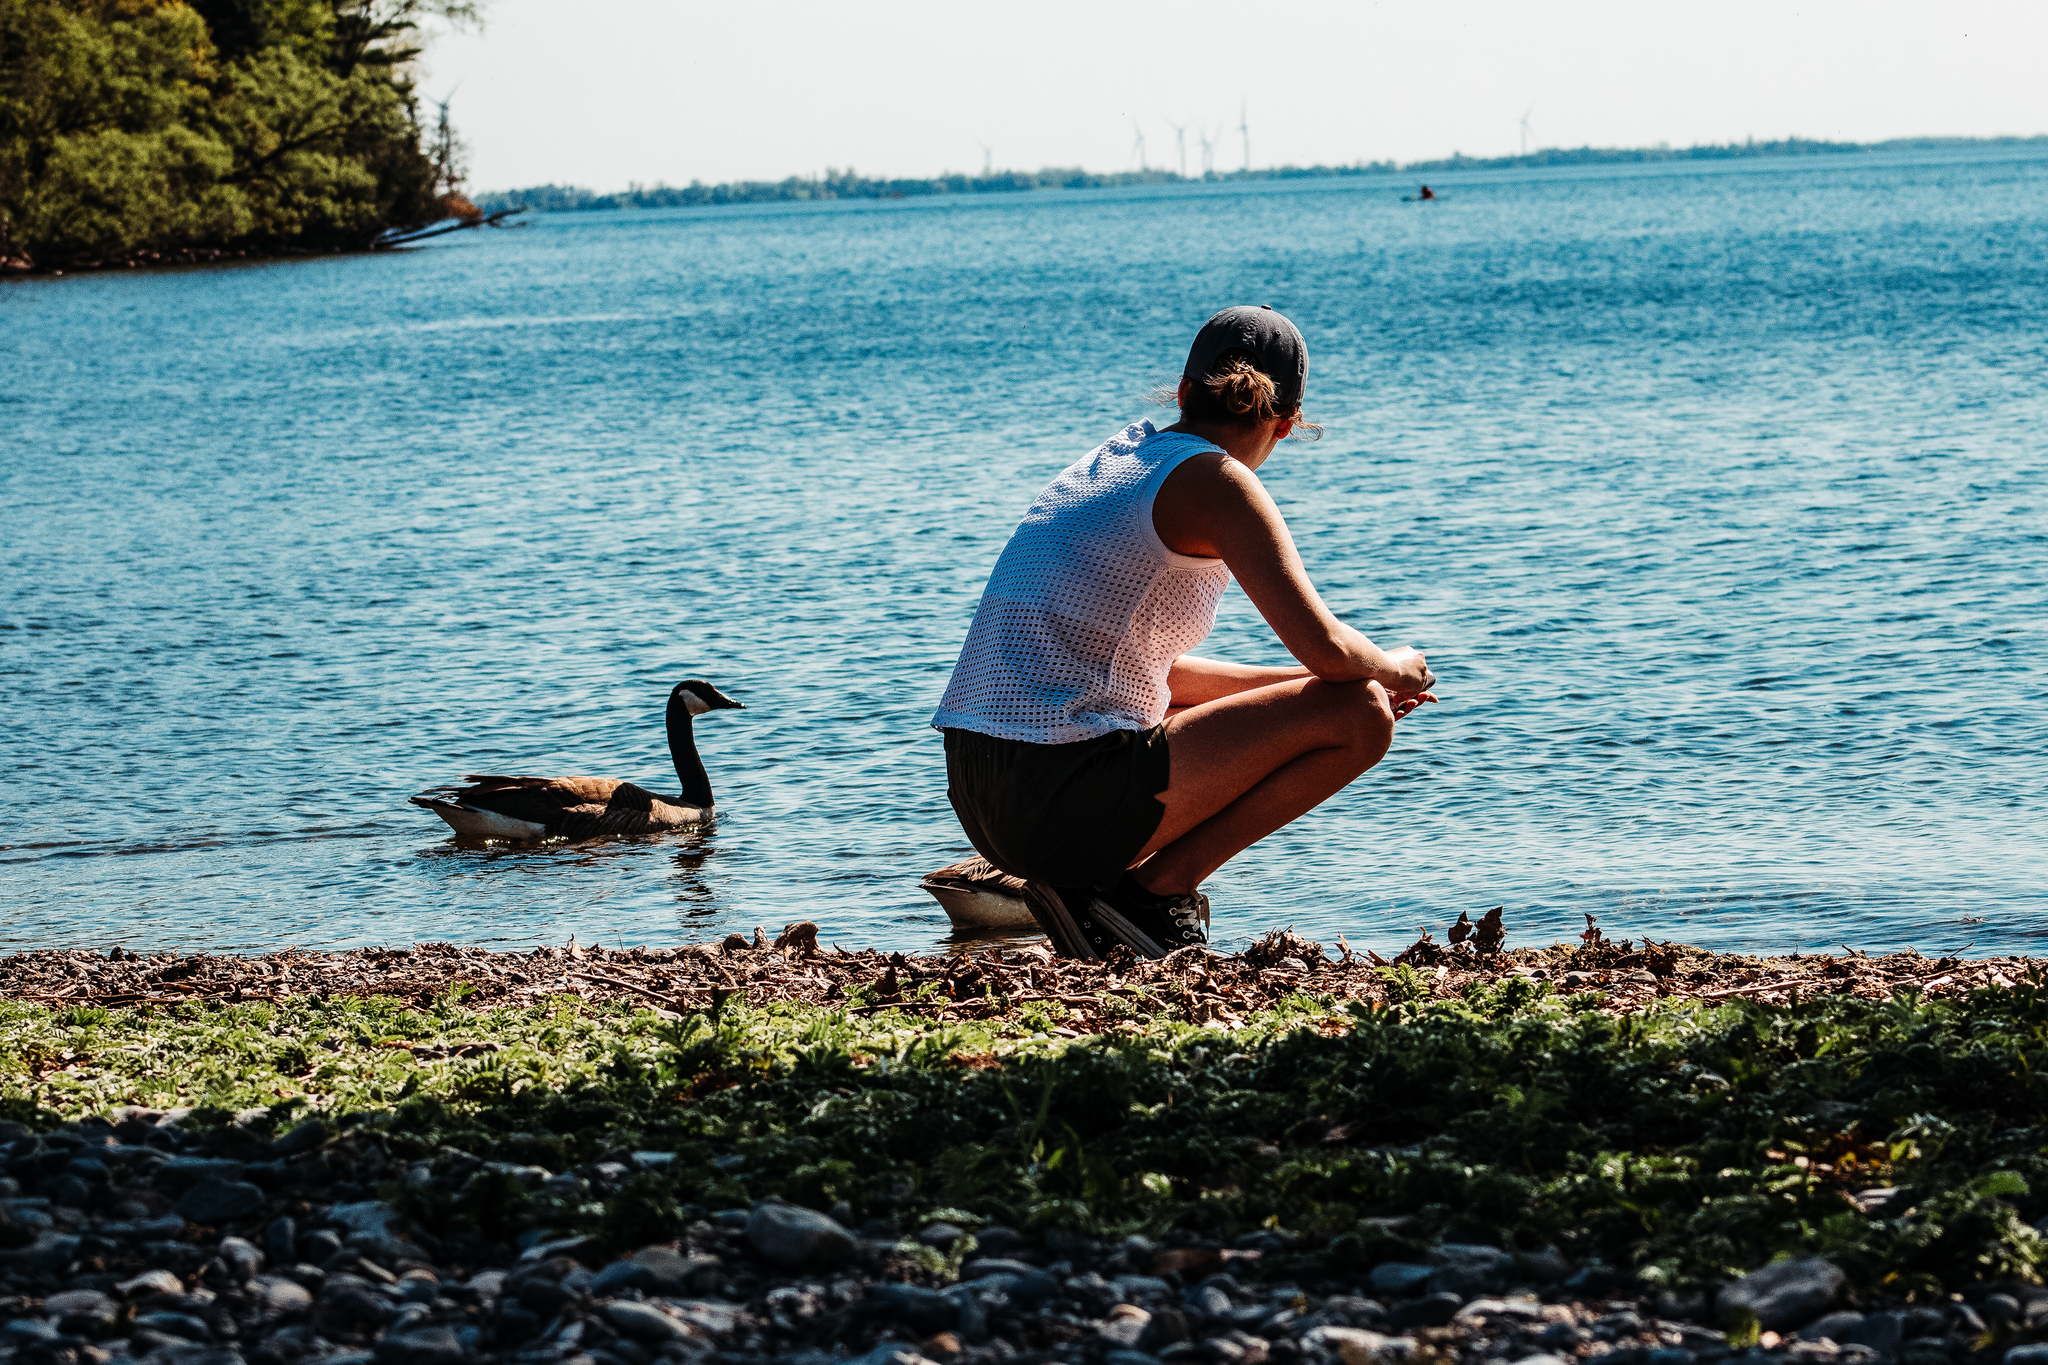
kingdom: Animalia
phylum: Chordata
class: Aves
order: Anseriformes
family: Anatidae
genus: Branta
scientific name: Branta canadensis
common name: Canada goose
